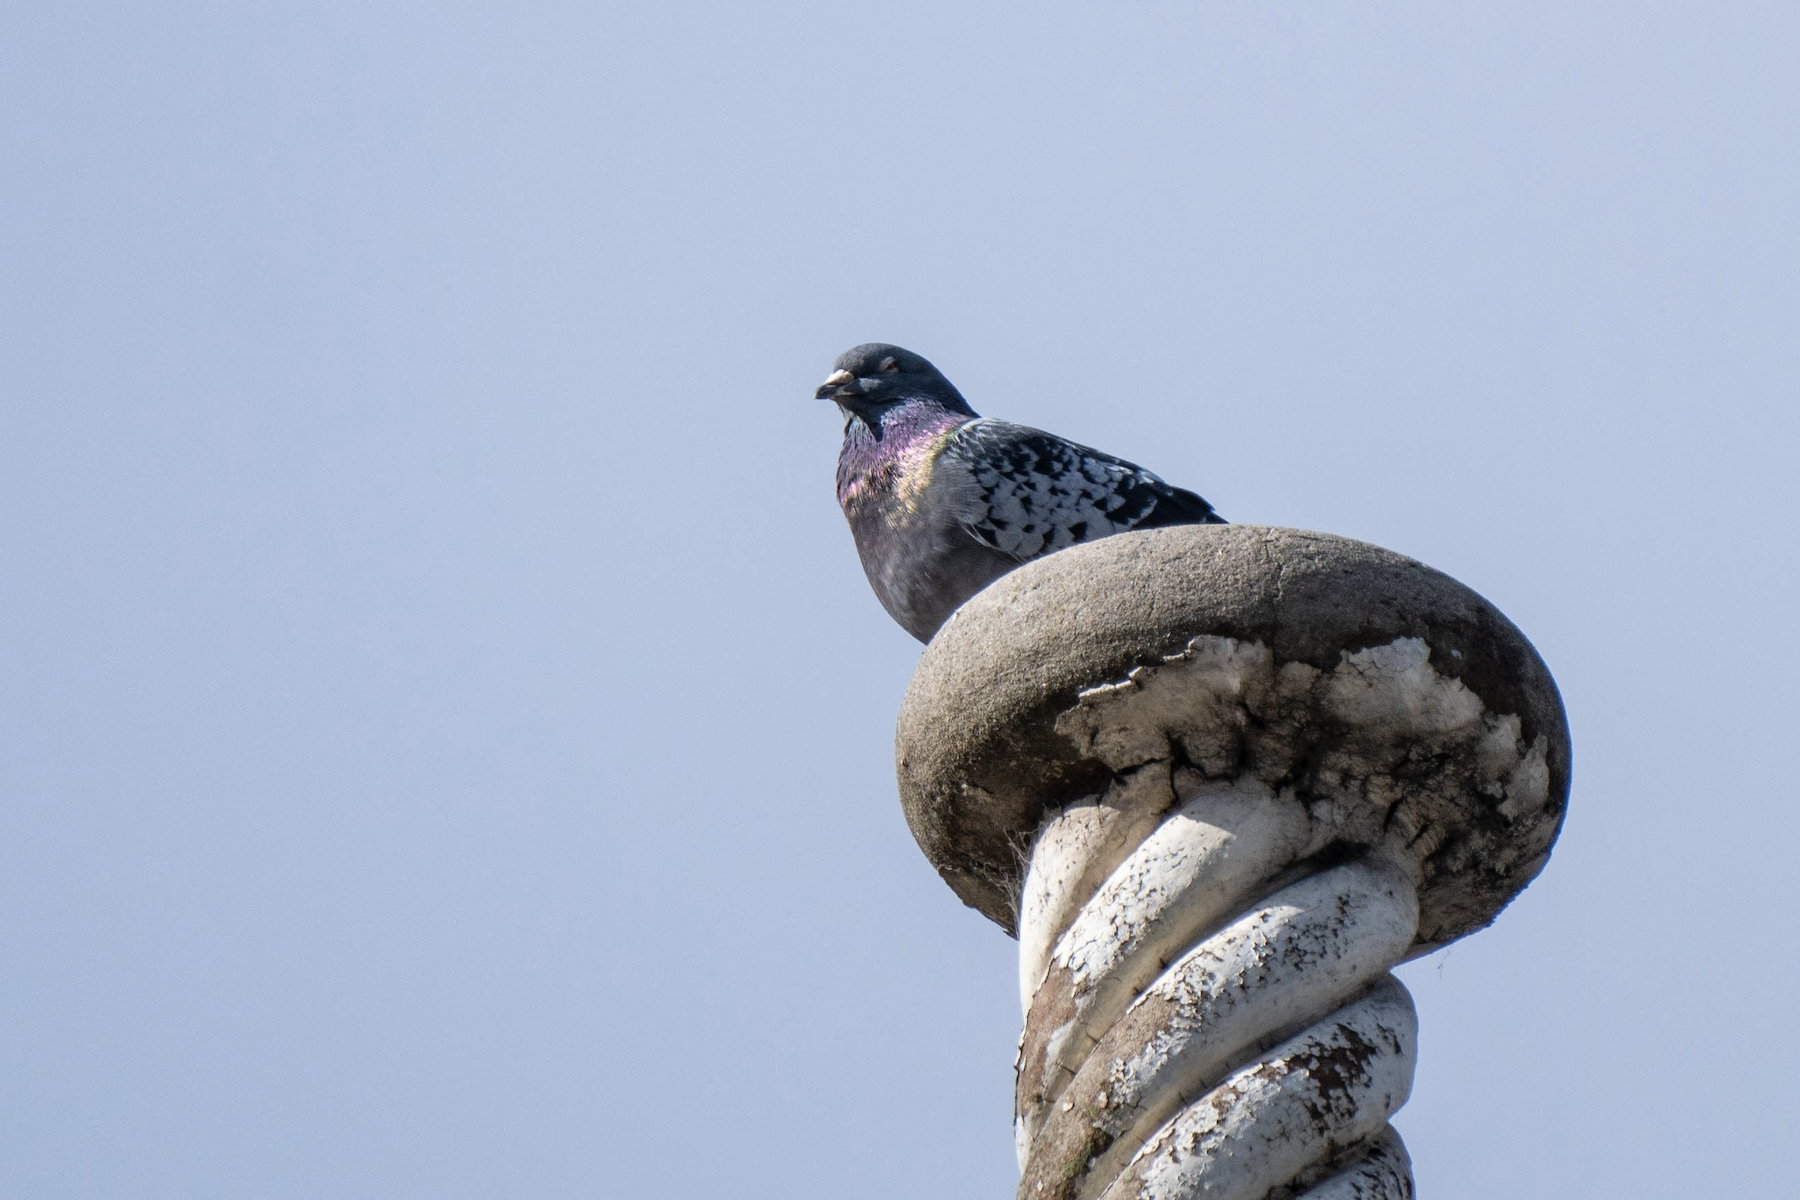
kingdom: Animalia
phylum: Chordata
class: Aves
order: Columbiformes
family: Columbidae
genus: Columba
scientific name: Columba livia
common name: Rock pigeon
